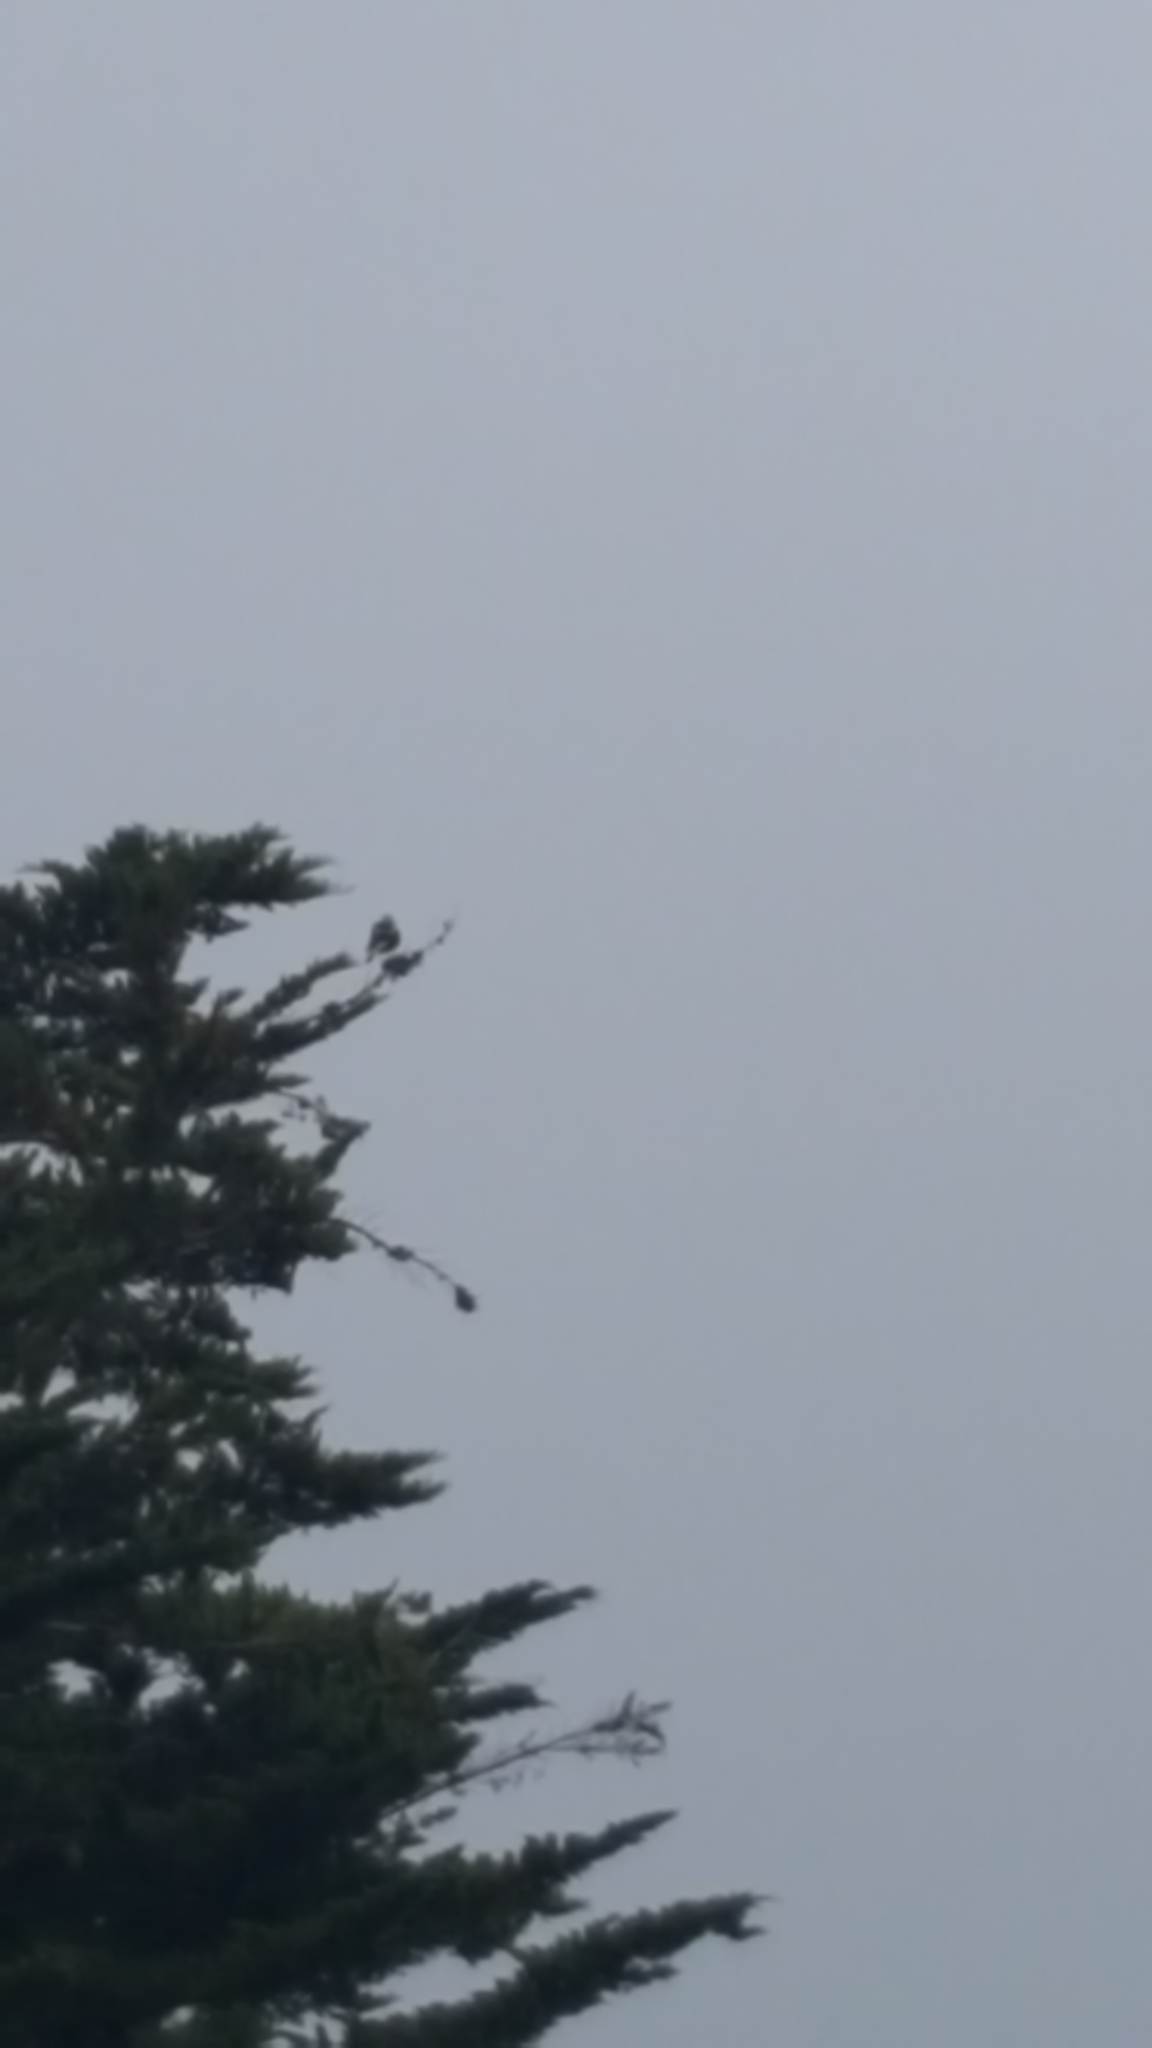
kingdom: Animalia
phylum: Chordata
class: Aves
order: Passeriformes
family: Cracticidae
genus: Gymnorhina
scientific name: Gymnorhina tibicen
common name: Australian magpie
